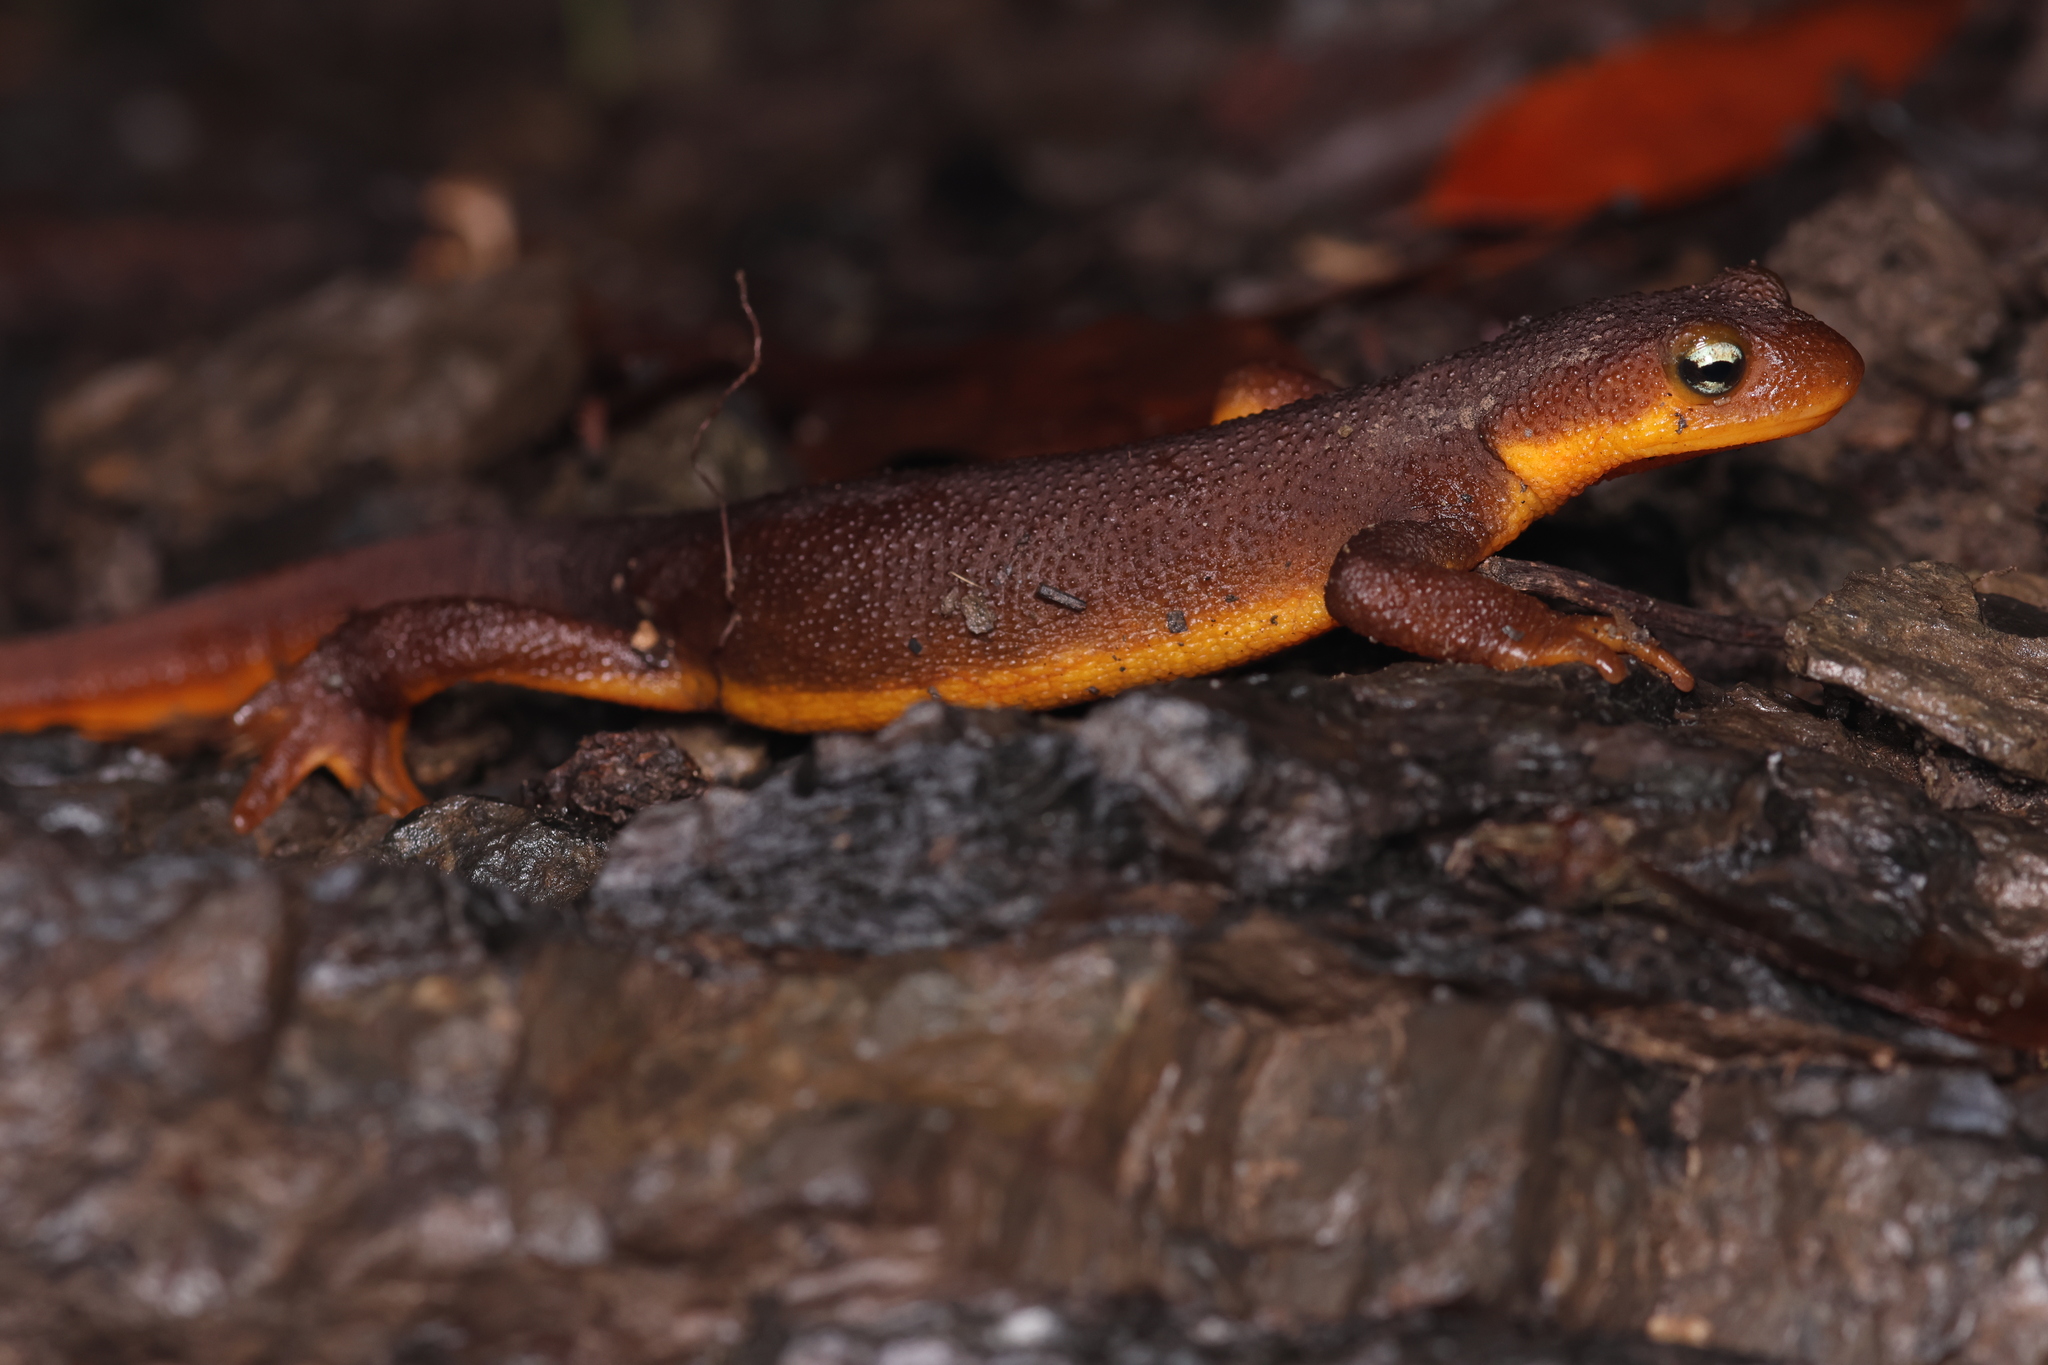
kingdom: Animalia
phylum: Chordata
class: Amphibia
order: Caudata
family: Salamandridae
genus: Taricha
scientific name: Taricha torosa
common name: California newt
